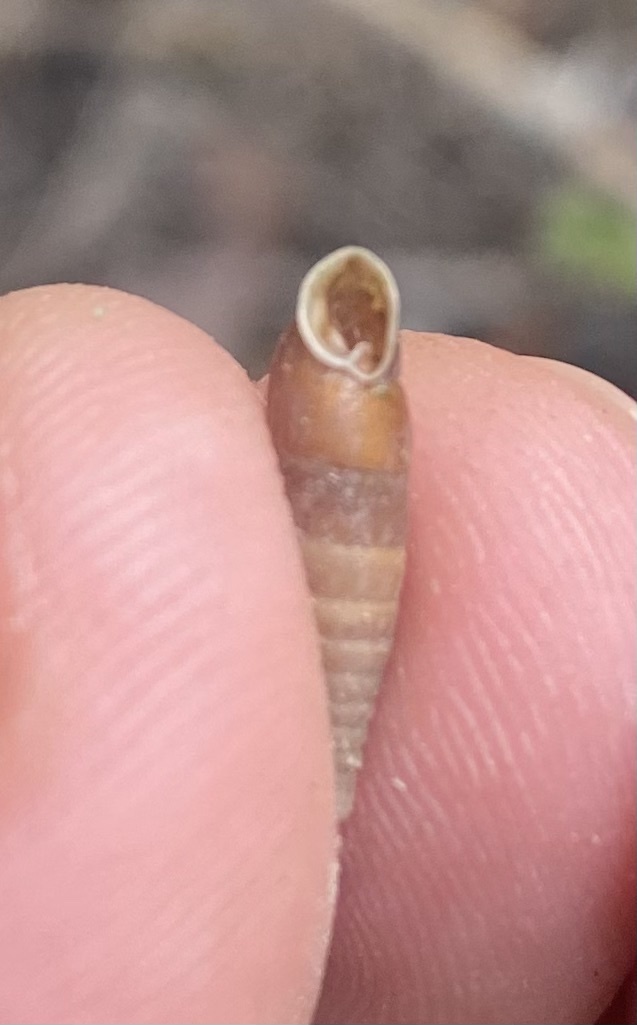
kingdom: Animalia
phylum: Mollusca
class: Gastropoda
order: Stylommatophora
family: Clausiliidae
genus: Elia
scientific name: Elia novorossica
